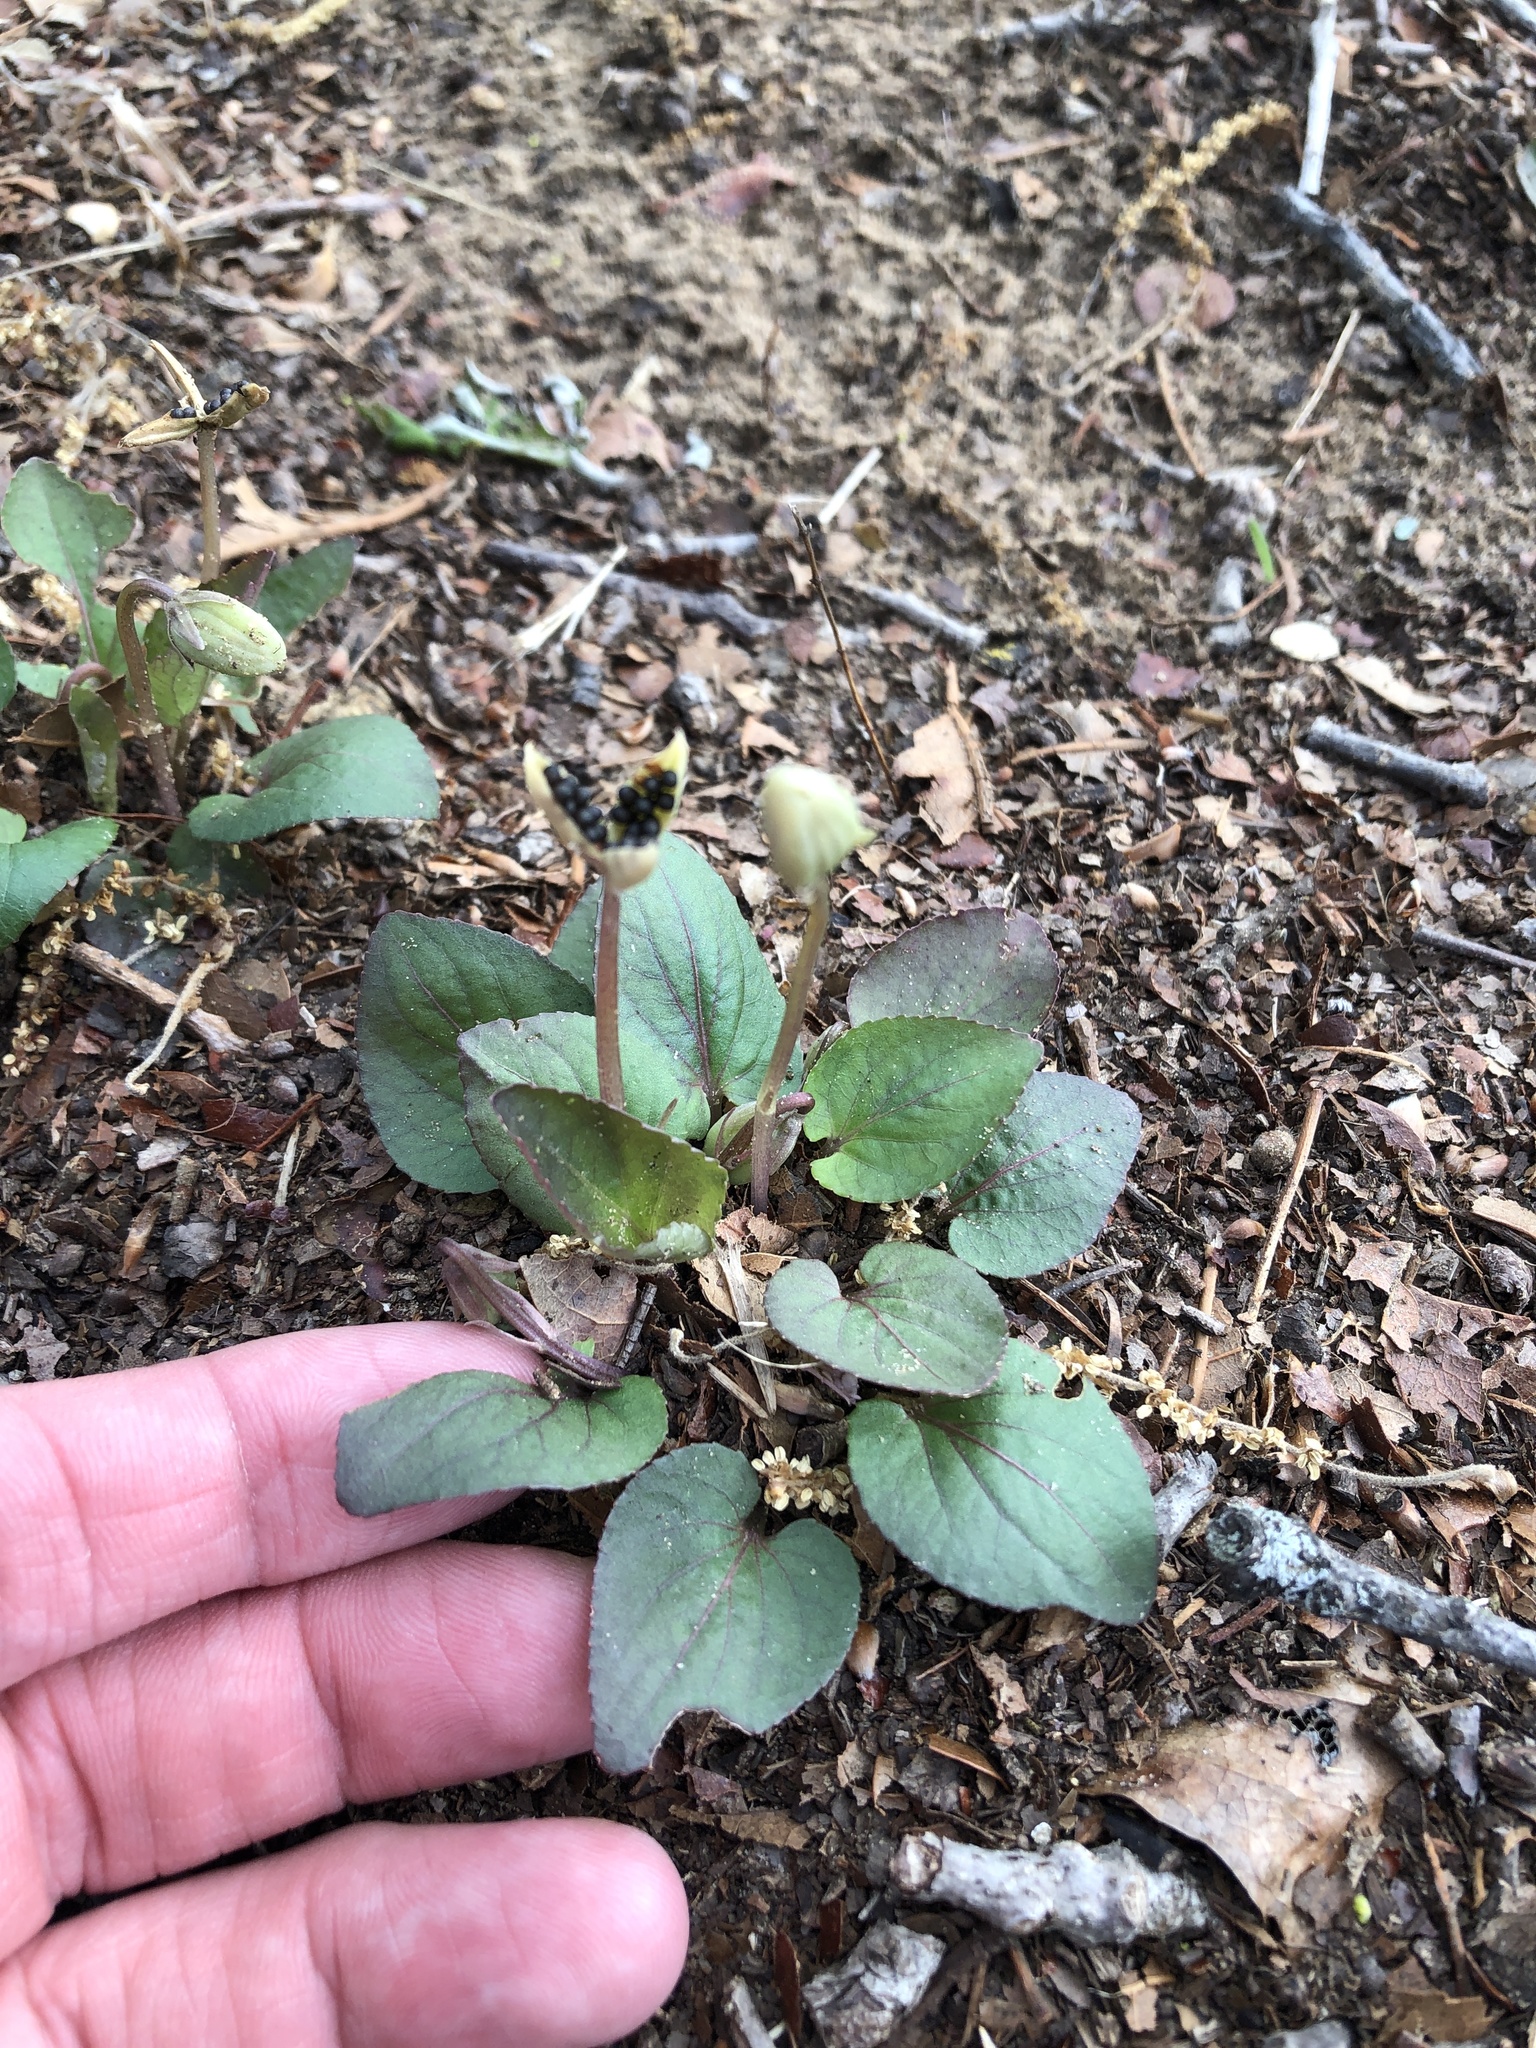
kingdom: Plantae
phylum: Tracheophyta
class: Magnoliopsida
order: Malpighiales
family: Violaceae
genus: Viola
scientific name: Viola villosa
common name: Carolina violet
